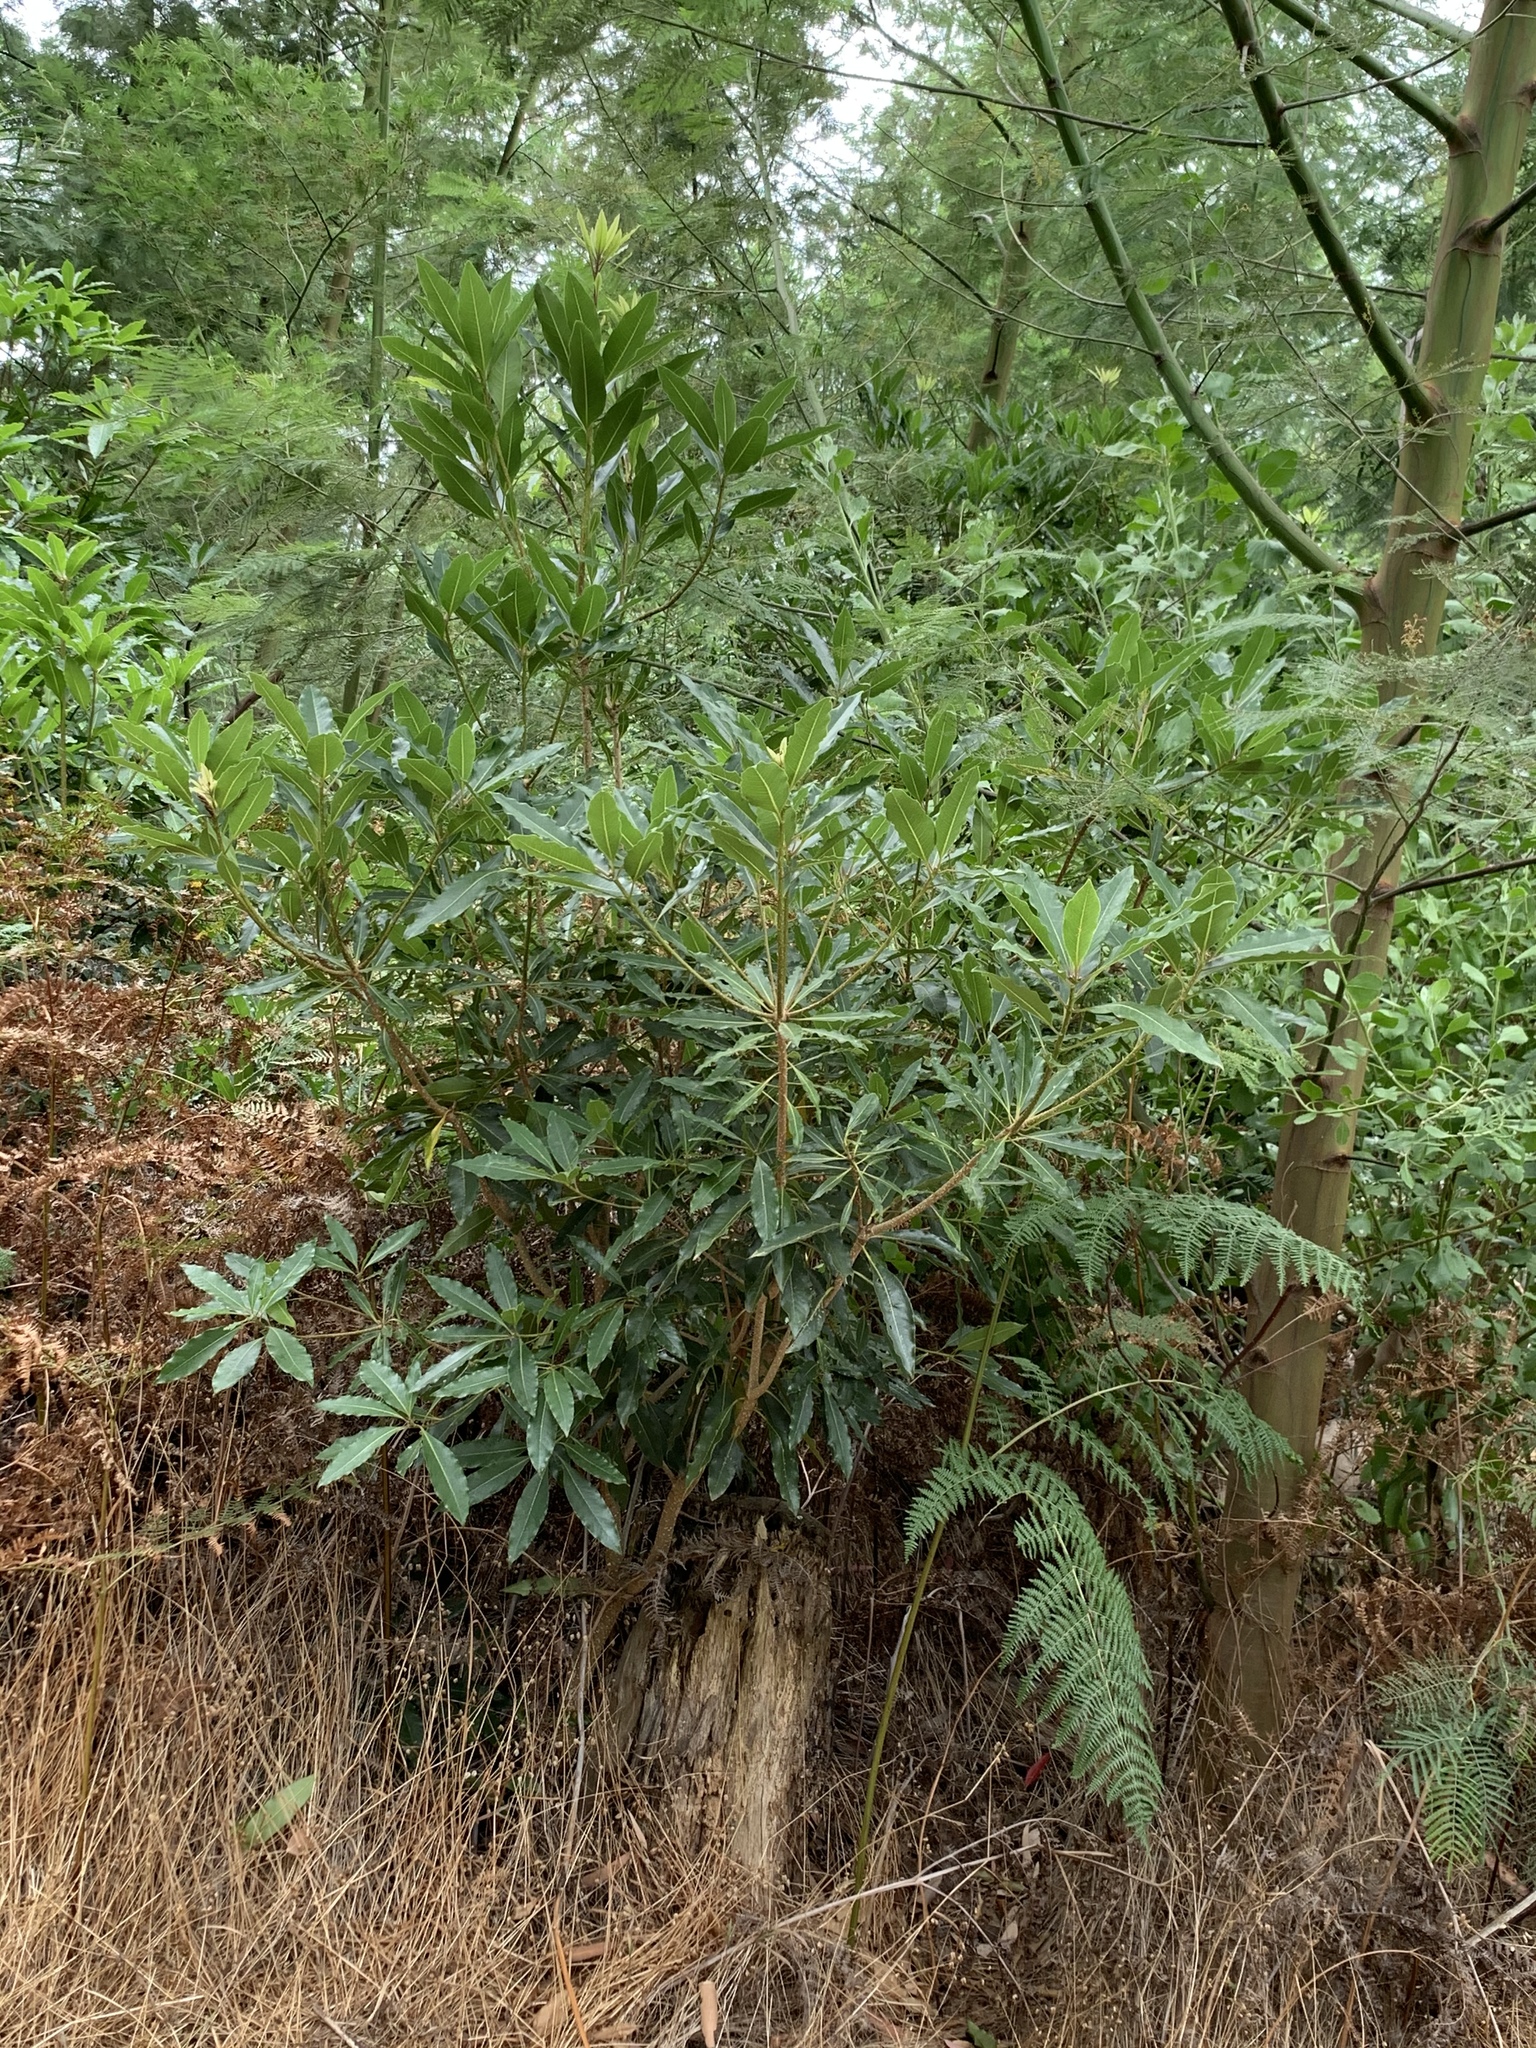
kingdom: Plantae
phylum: Tracheophyta
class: Magnoliopsida
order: Apiales
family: Pittosporaceae
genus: Pittosporum
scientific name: Pittosporum undulatum
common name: Australian cheesewood
